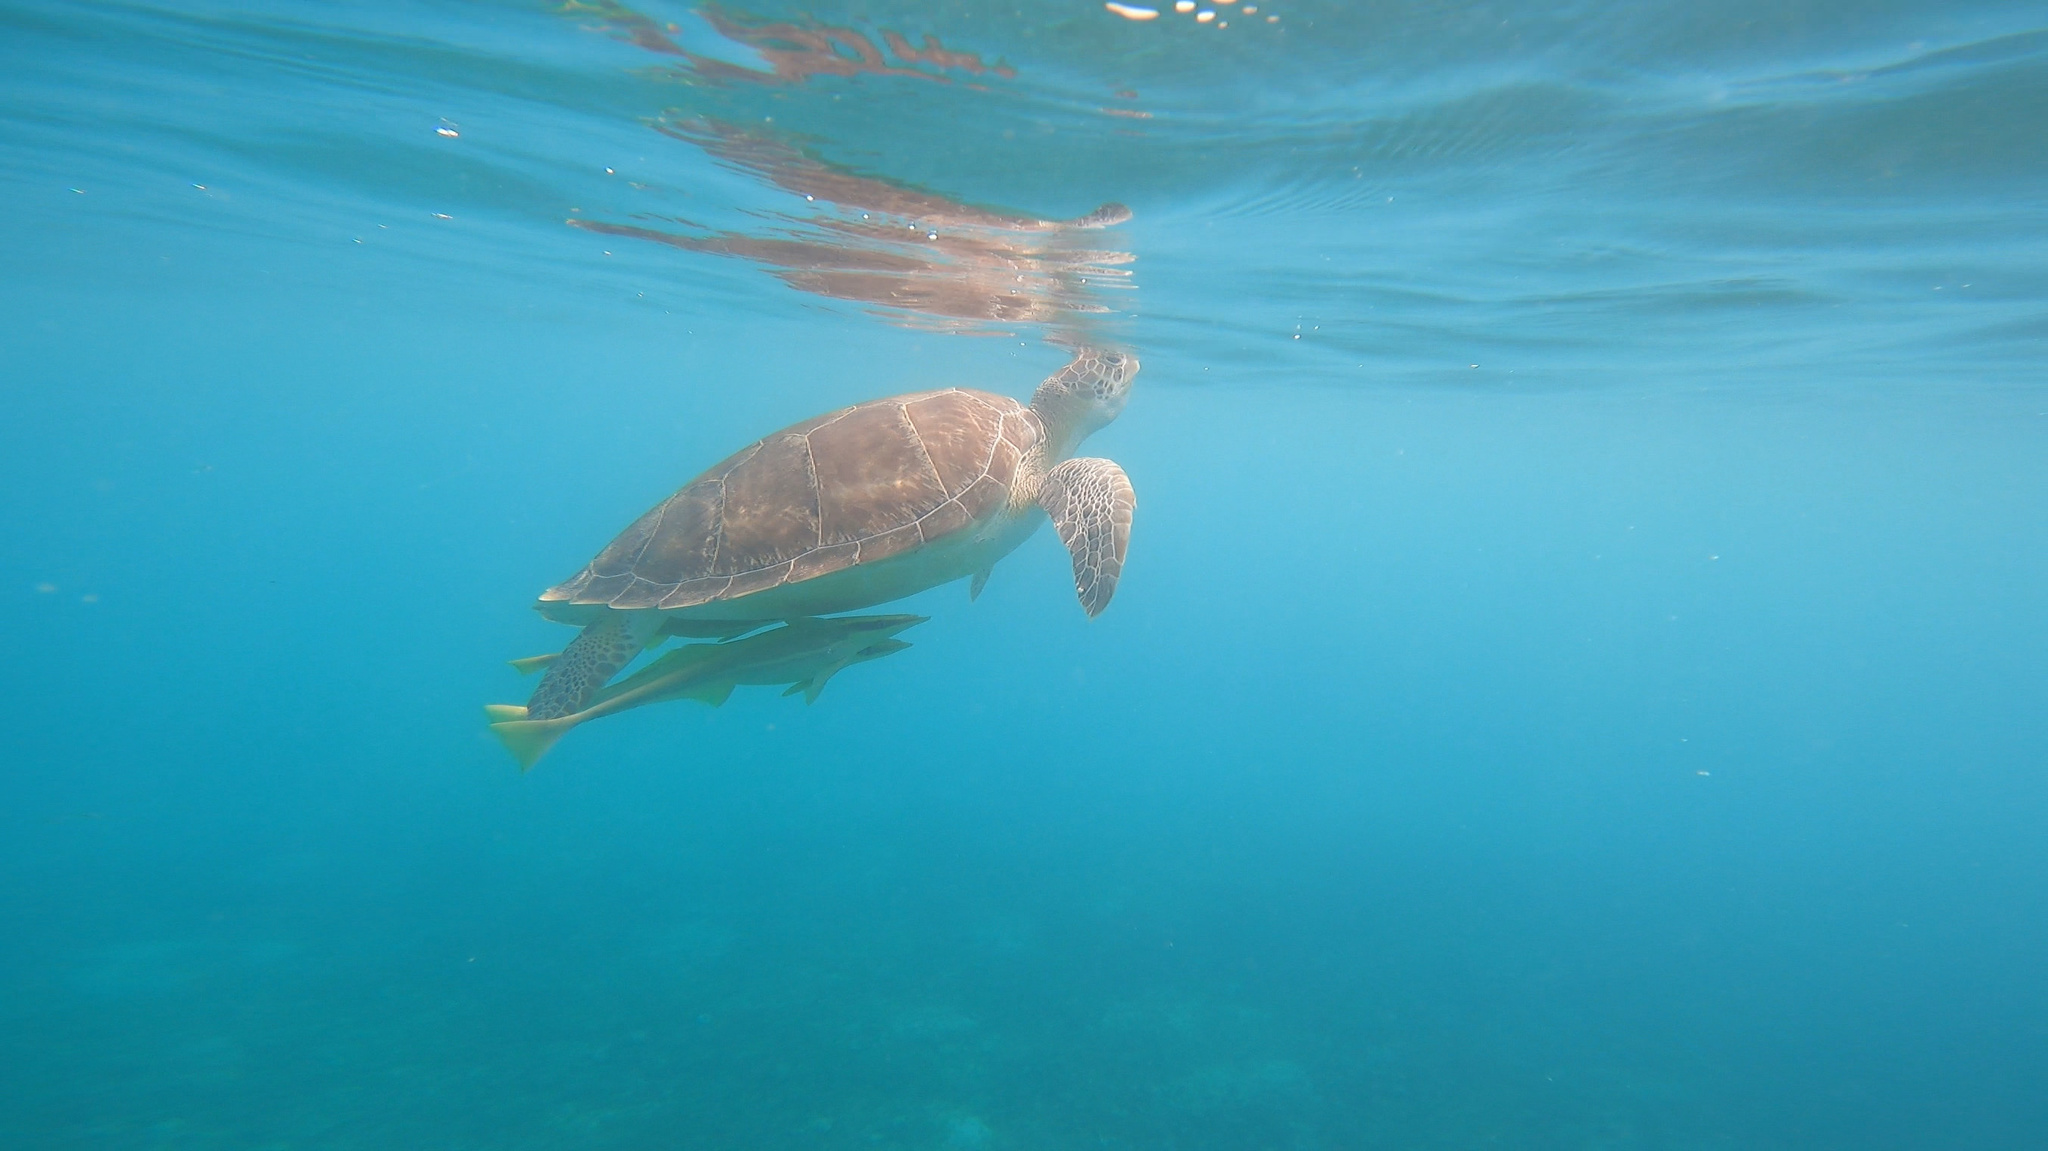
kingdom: Animalia
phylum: Chordata
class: Testudines
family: Cheloniidae
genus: Chelonia
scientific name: Chelonia mydas
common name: Green turtle
